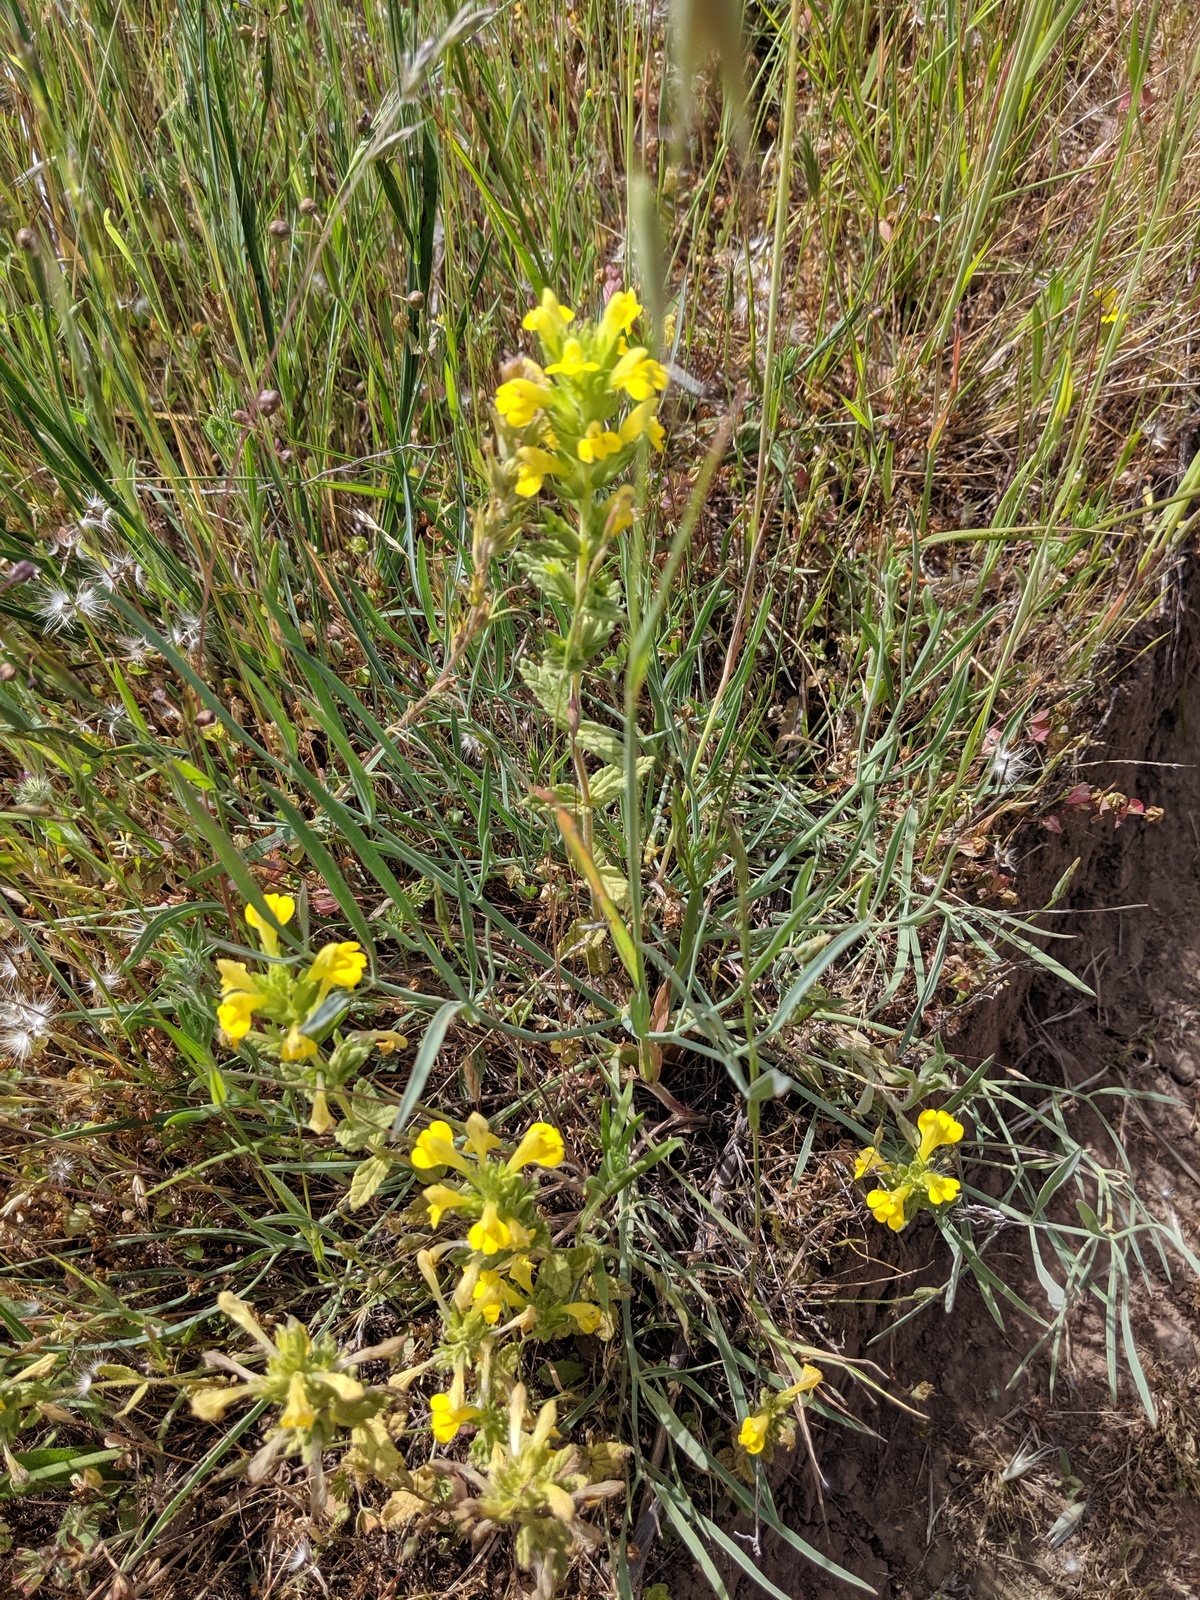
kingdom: Plantae
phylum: Tracheophyta
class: Magnoliopsida
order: Lamiales
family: Orobanchaceae
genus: Bellardia
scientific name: Bellardia viscosa
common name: Sticky parentucellia
